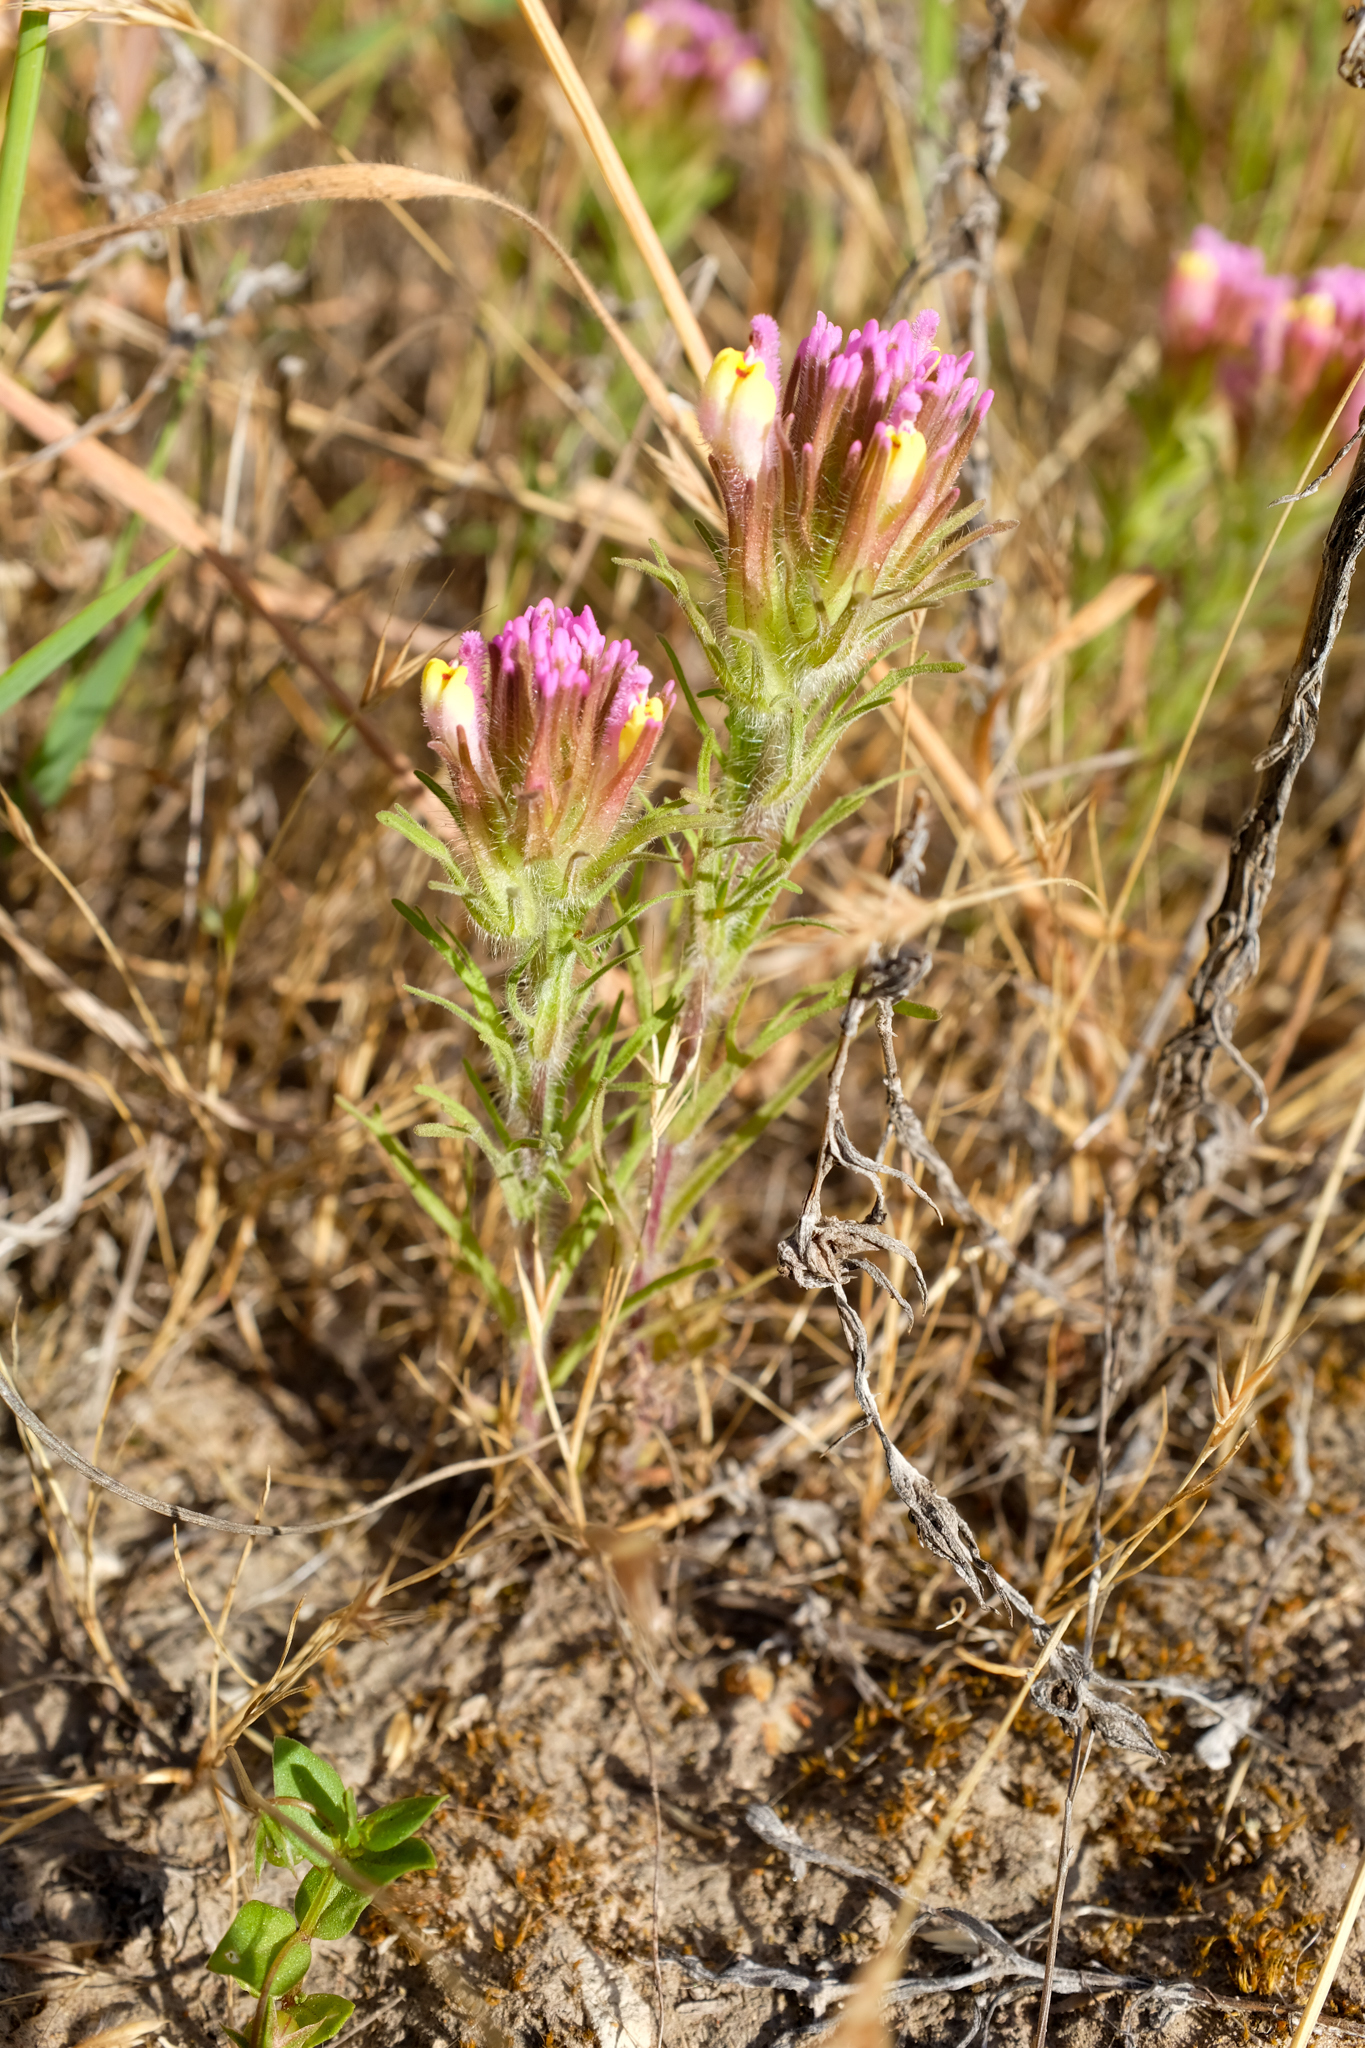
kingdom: Plantae
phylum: Tracheophyta
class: Magnoliopsida
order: Lamiales
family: Orobanchaceae
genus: Castilleja
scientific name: Castilleja exserta
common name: Purple owl-clover
